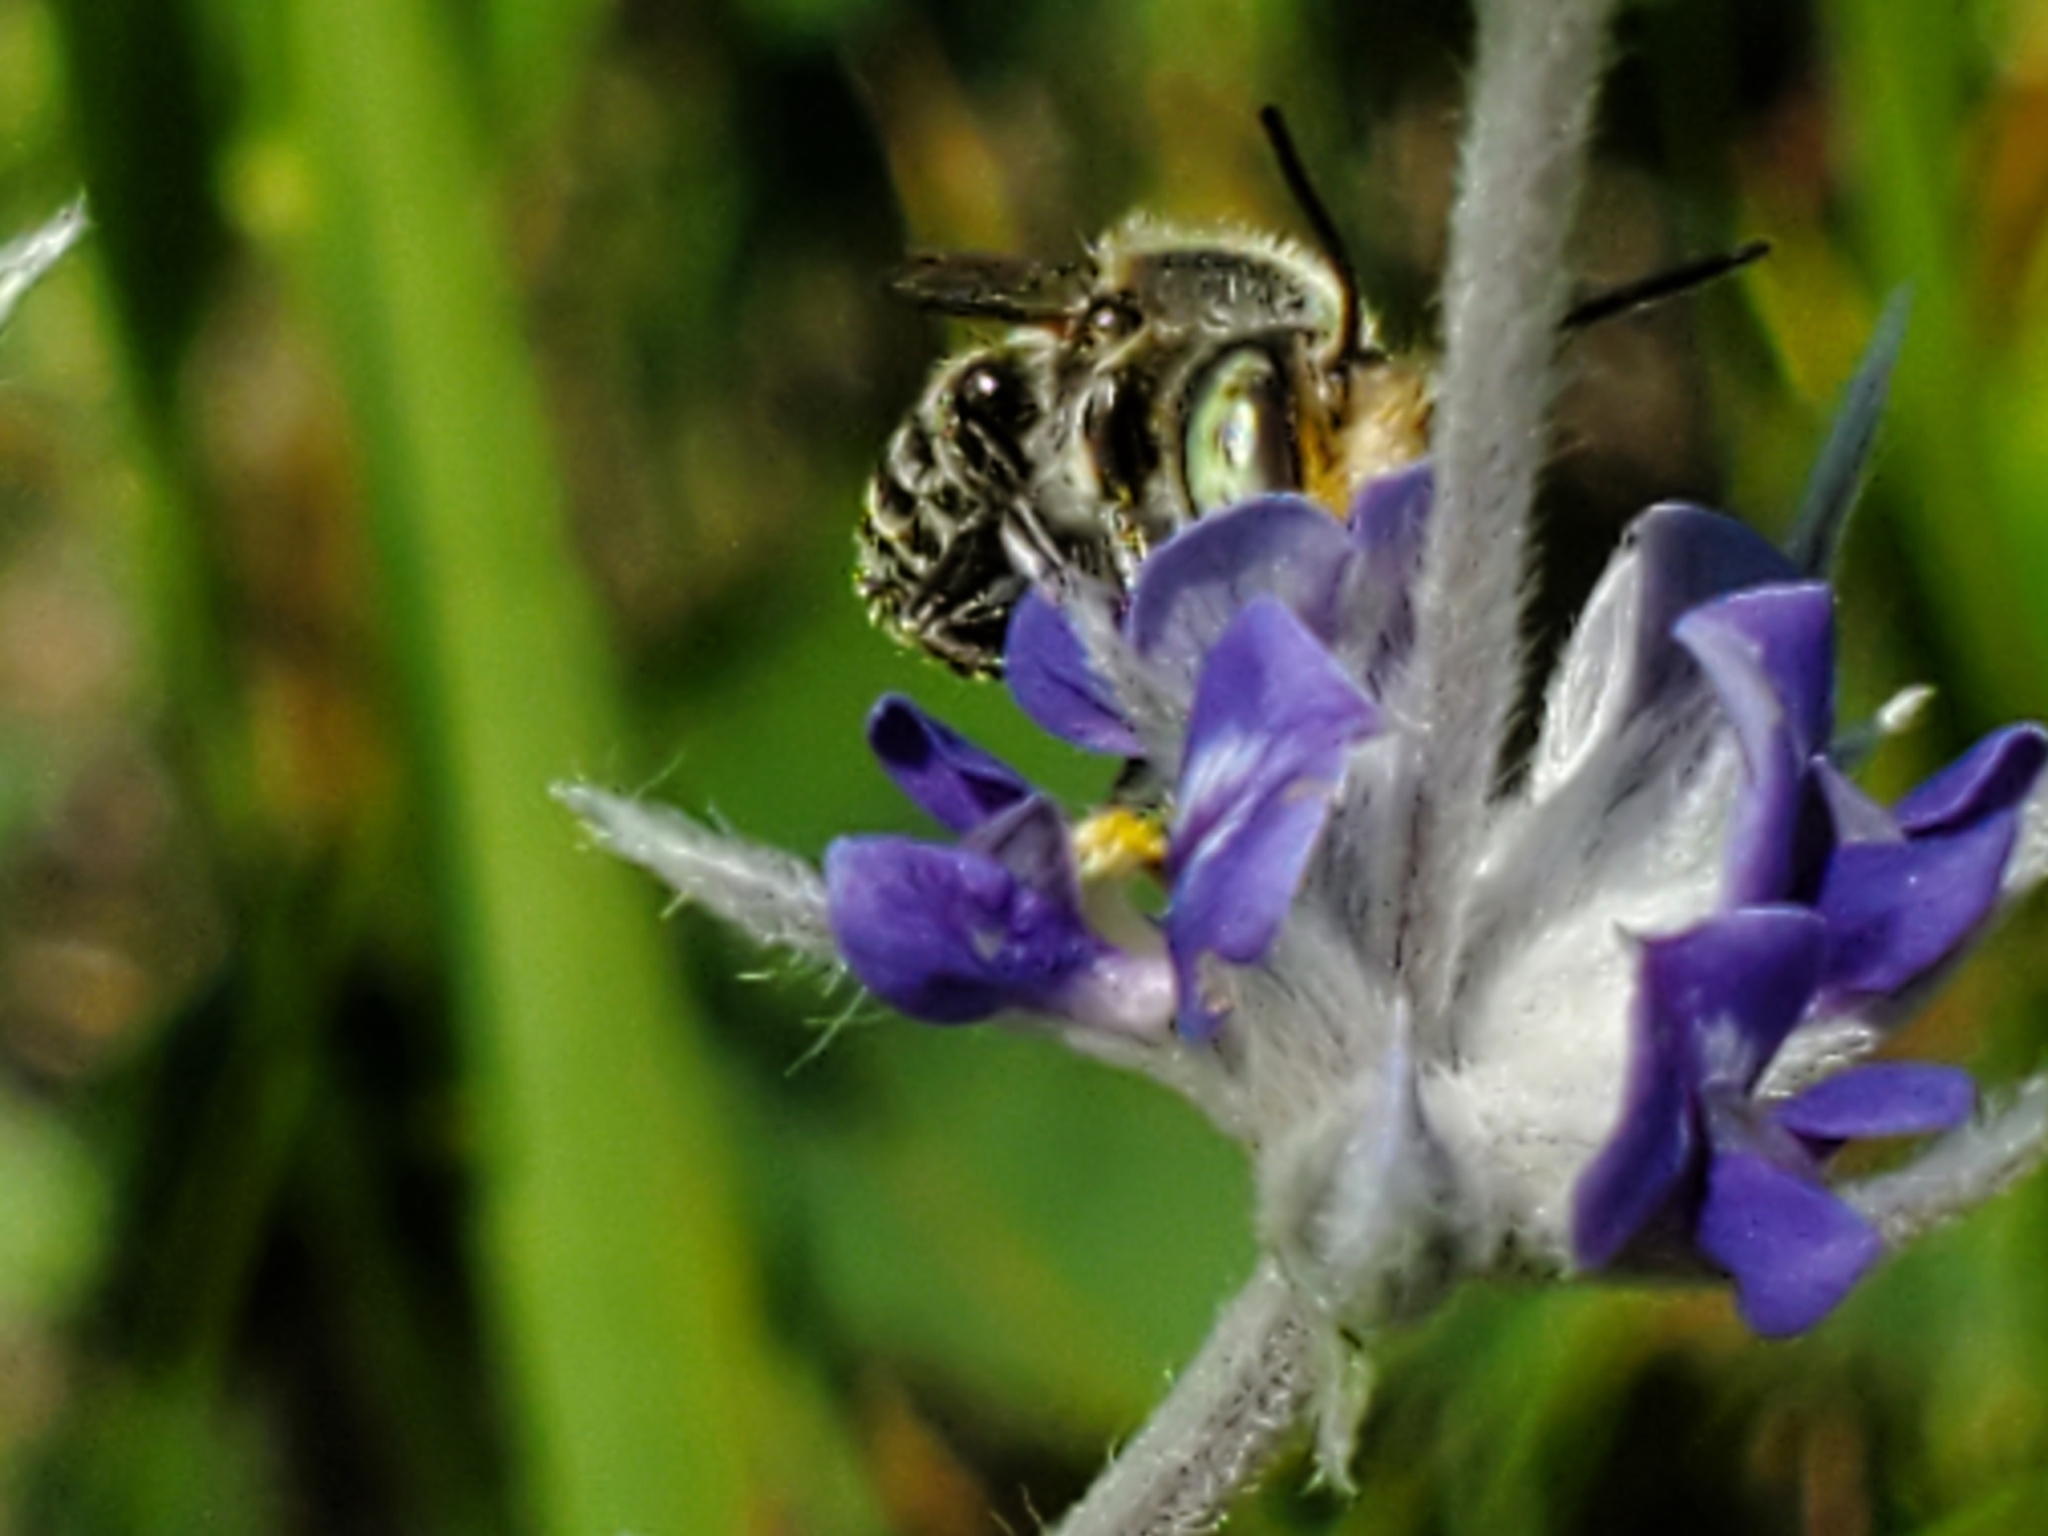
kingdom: Animalia
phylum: Arthropoda
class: Insecta
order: Hymenoptera
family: Megachilidae
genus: Megachile
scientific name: Megachile rotundata
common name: Alfalfa leafcutting bee
